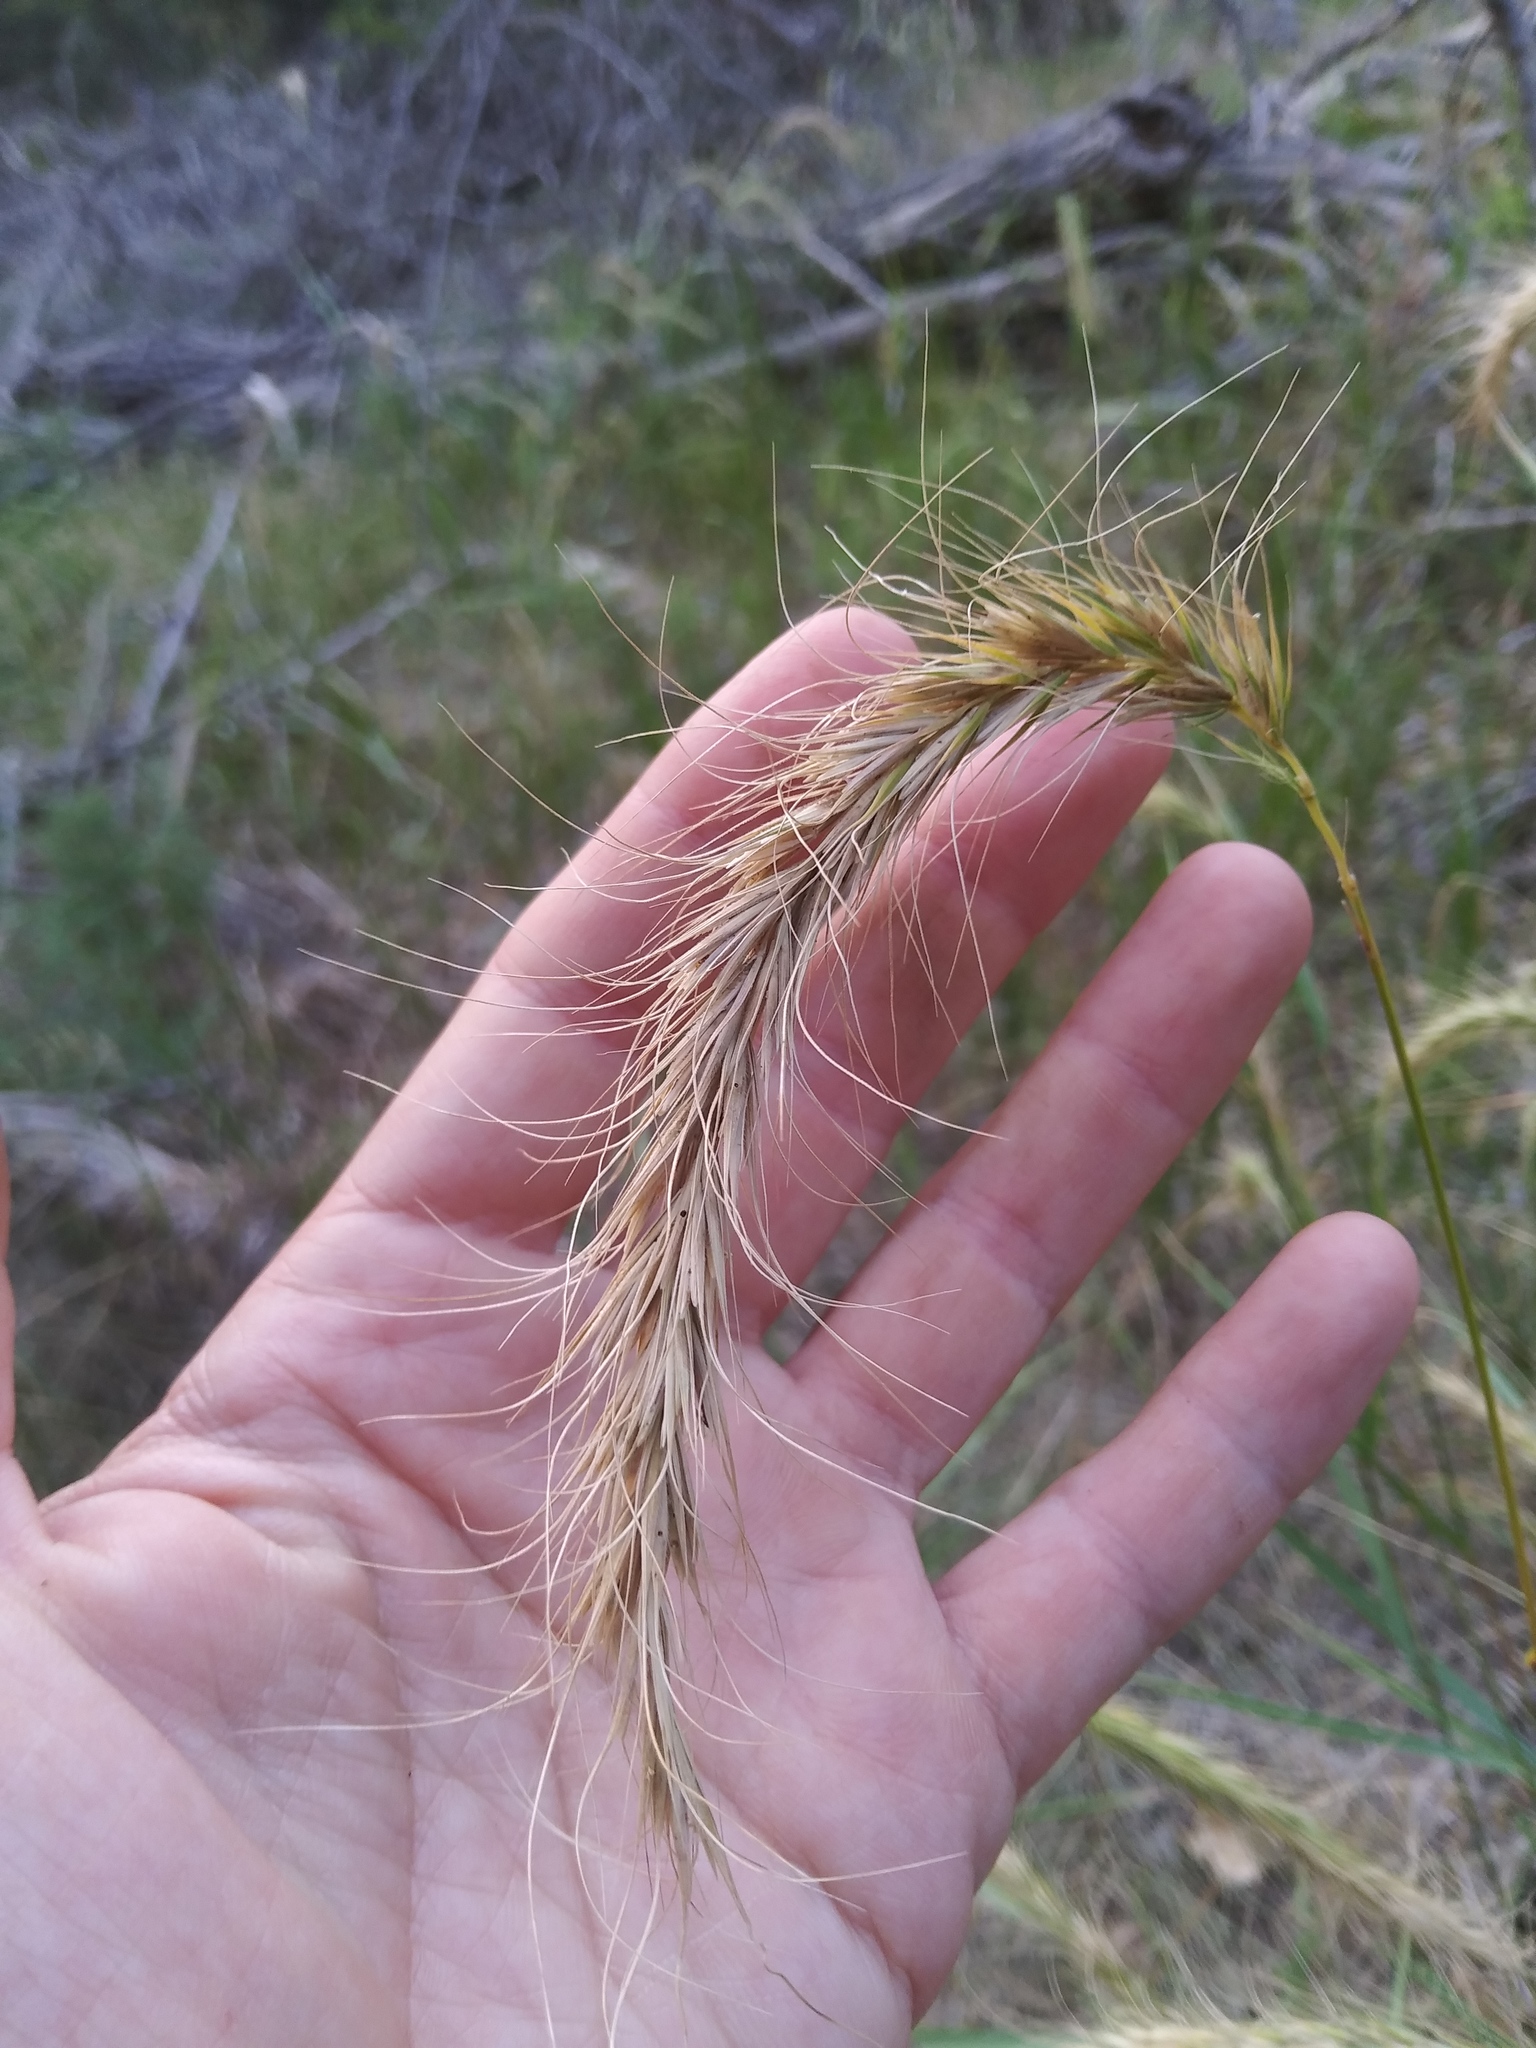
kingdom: Plantae
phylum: Tracheophyta
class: Liliopsida
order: Poales
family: Poaceae
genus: Elymus
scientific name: Elymus canadensis
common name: Canada wild rye
